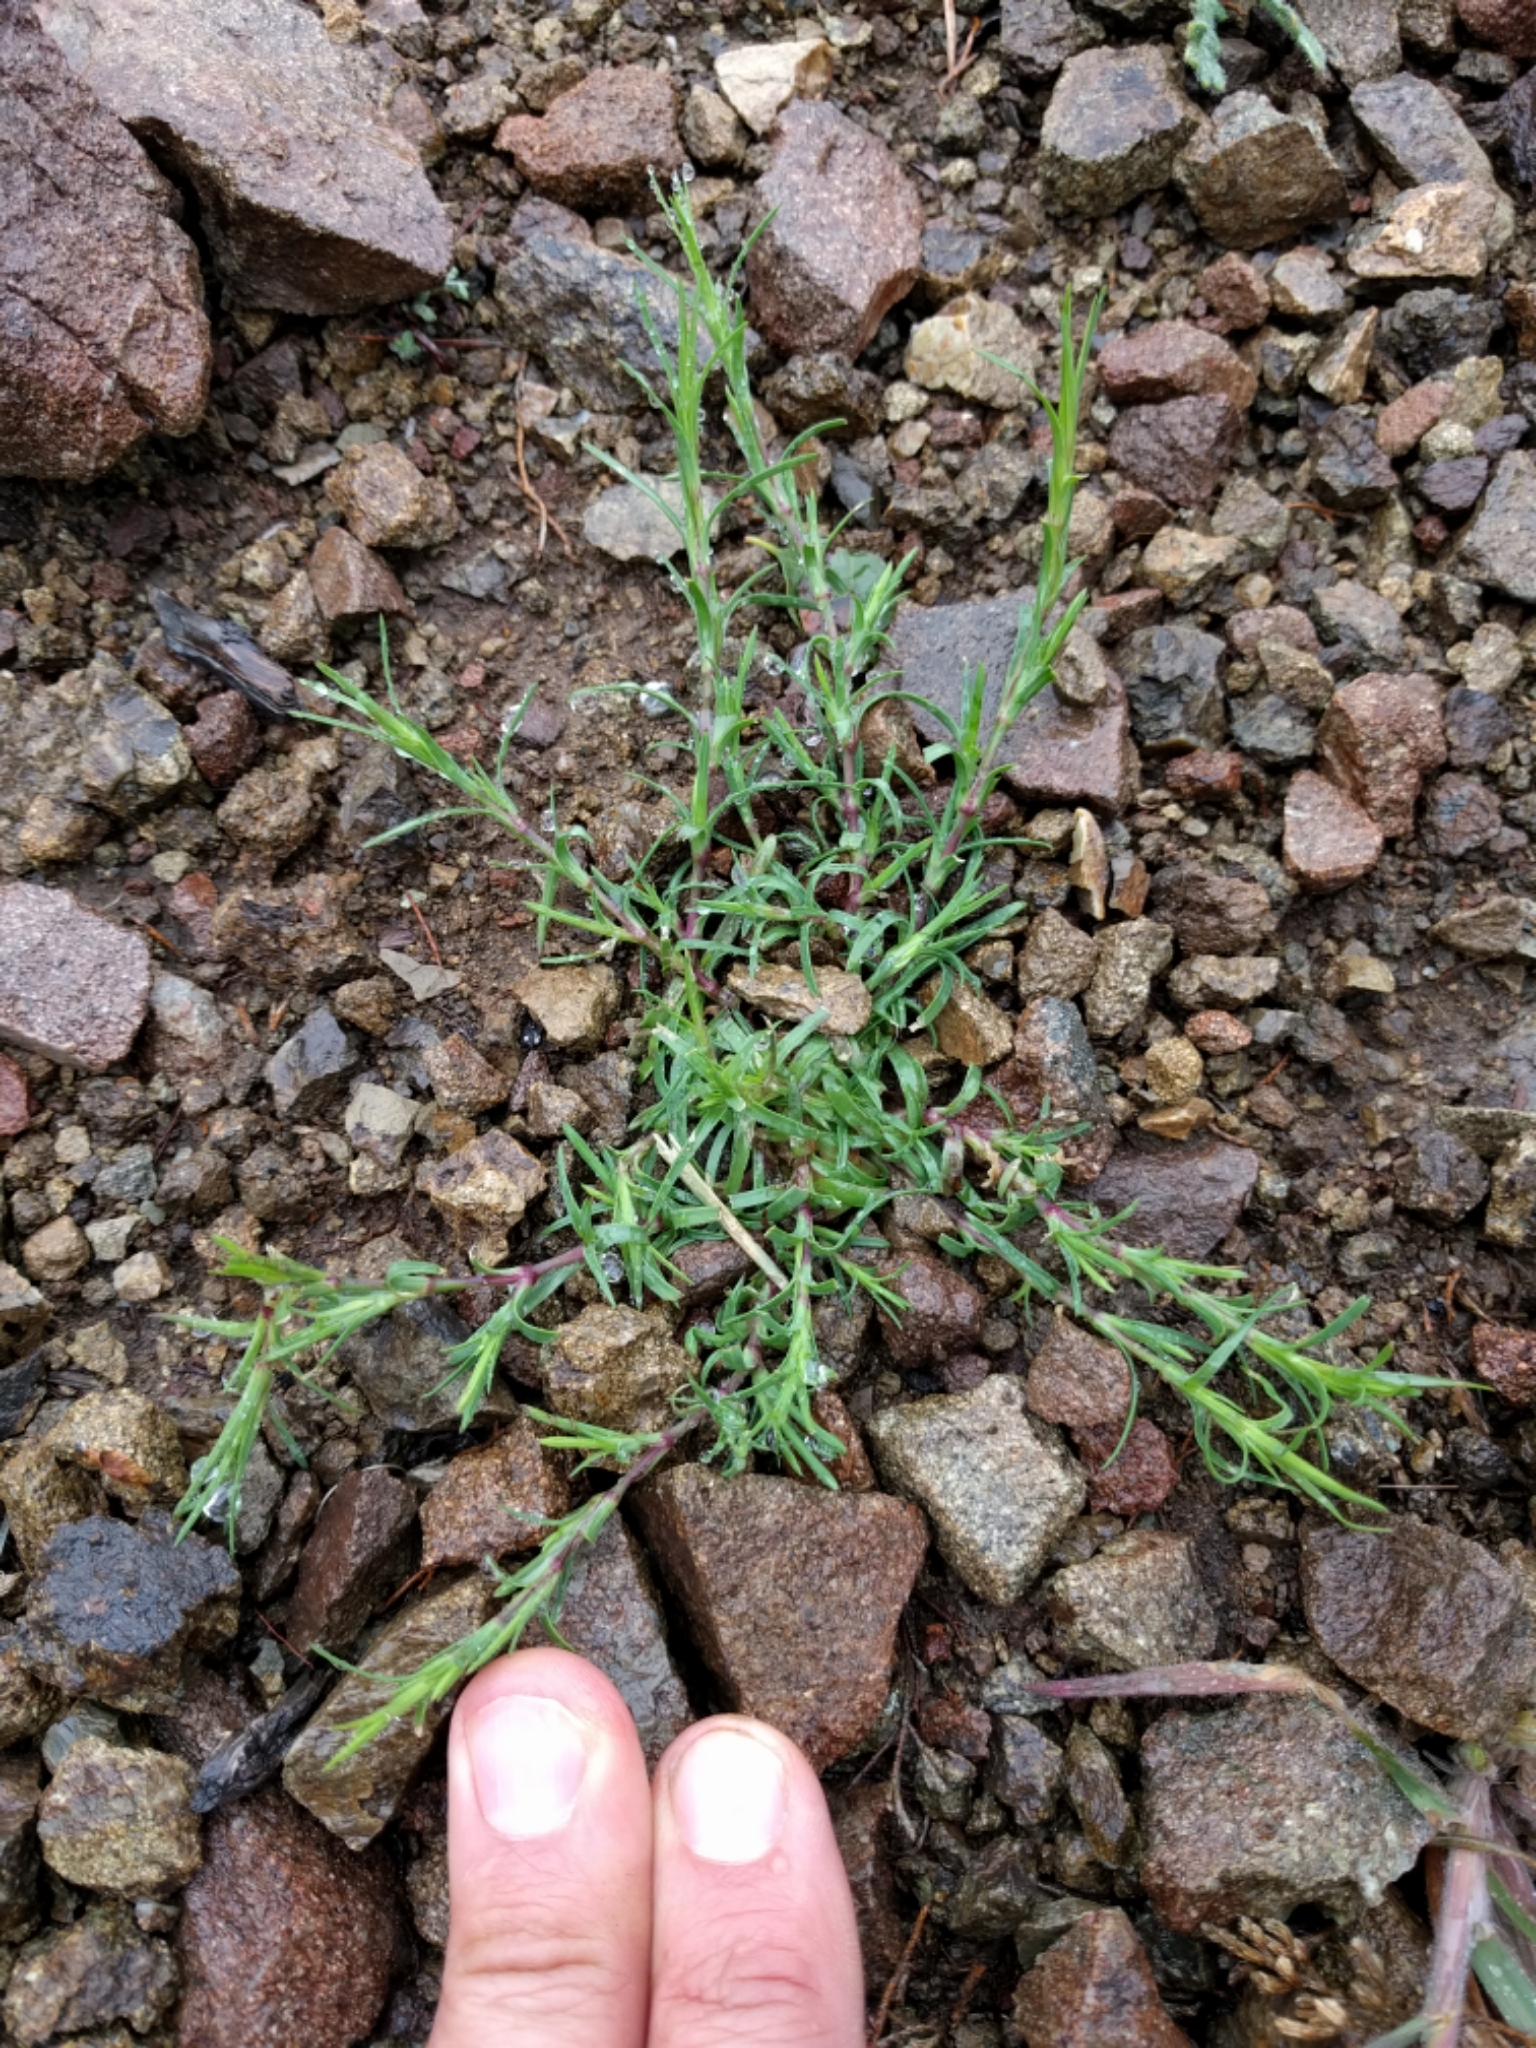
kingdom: Plantae
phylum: Tracheophyta
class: Magnoliopsida
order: Caryophyllales
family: Caryophyllaceae
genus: Dianthus
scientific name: Dianthus nudiflorus
